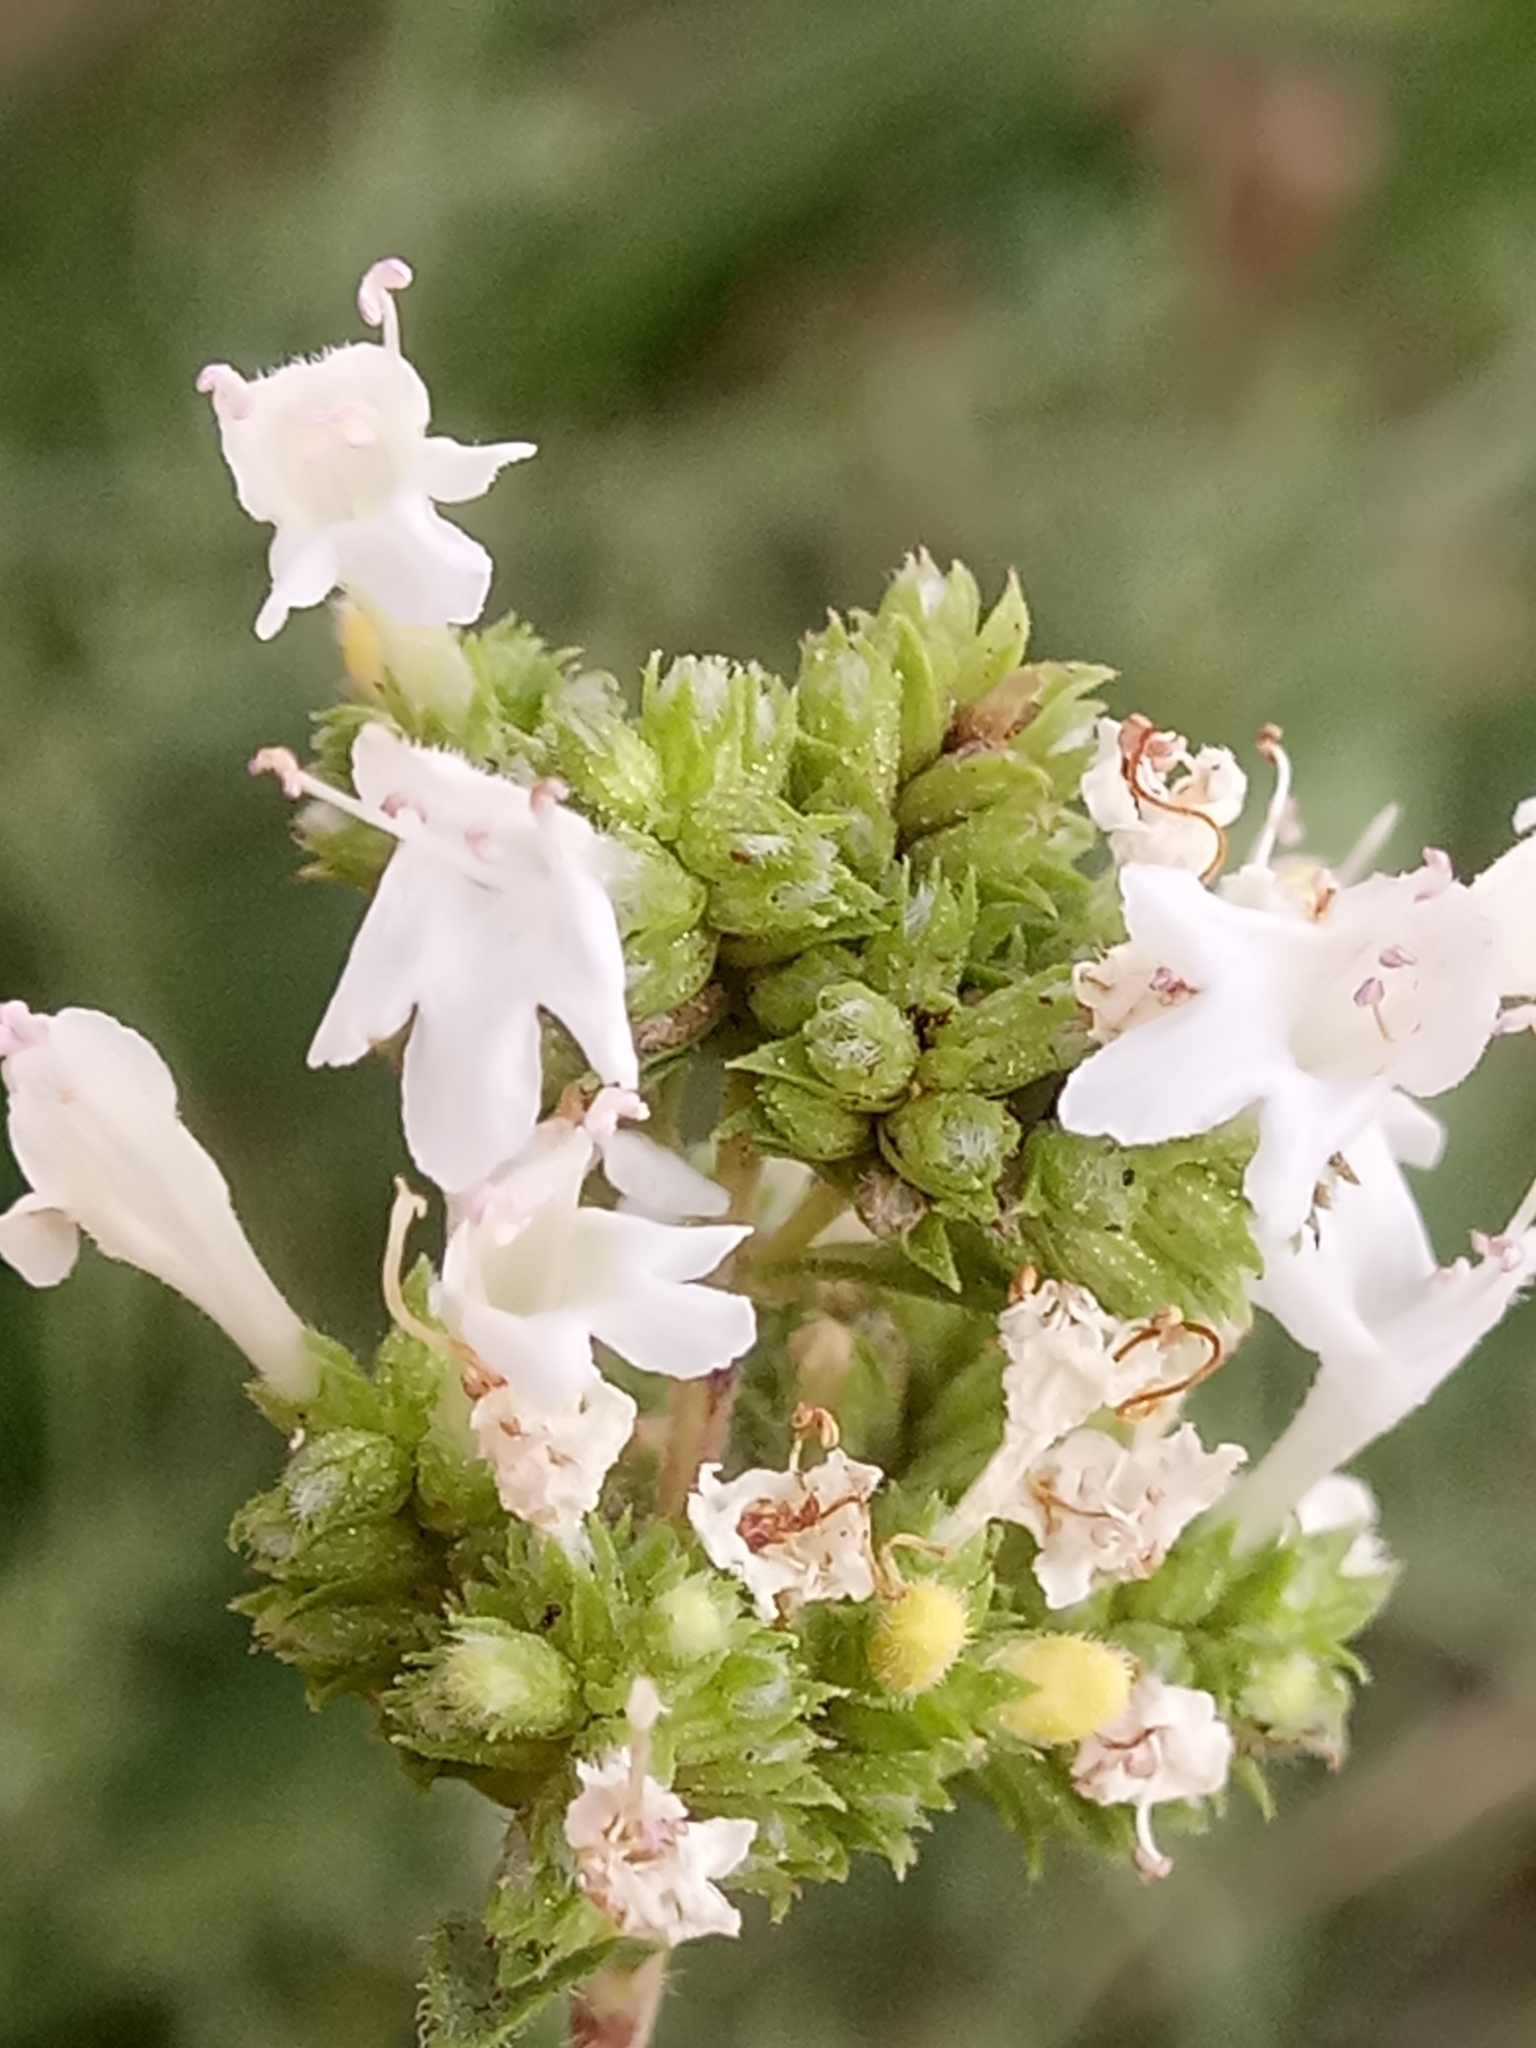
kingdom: Plantae
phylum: Tracheophyta
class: Magnoliopsida
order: Lamiales
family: Lamiaceae
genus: Origanum
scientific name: Origanum vulgare
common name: Wild marjoram
